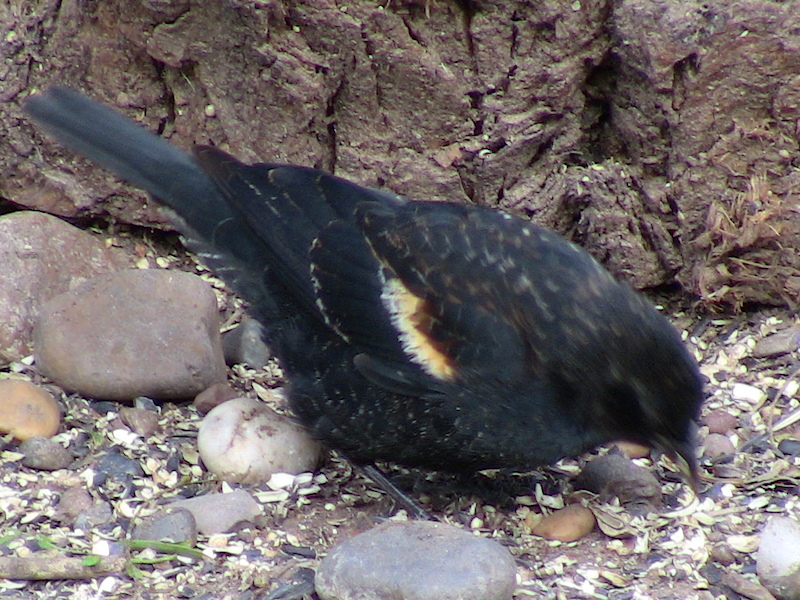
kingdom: Animalia
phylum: Chordata
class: Aves
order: Passeriformes
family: Icteridae
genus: Agelaius
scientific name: Agelaius phoeniceus
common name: Red-winged blackbird
